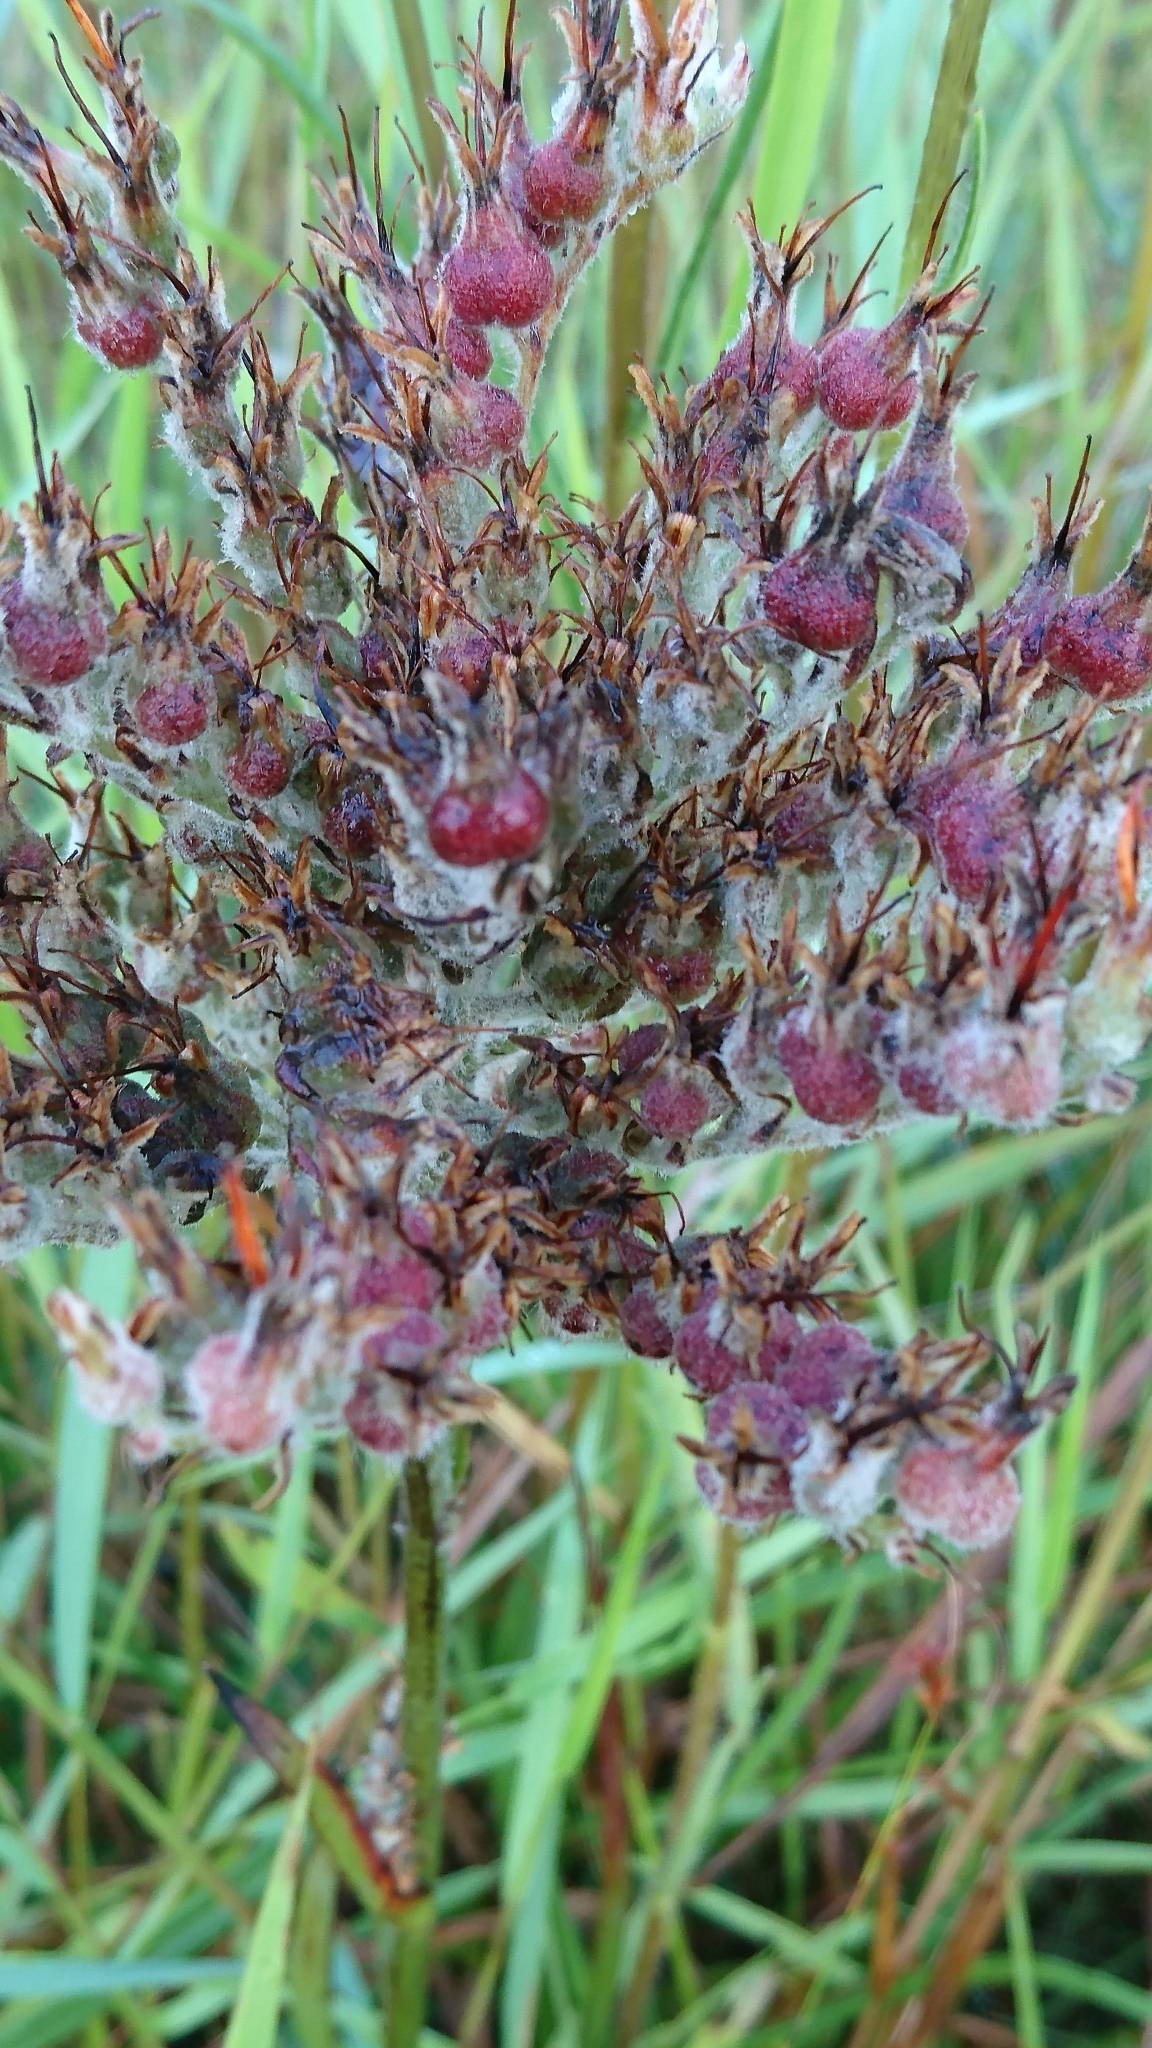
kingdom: Plantae
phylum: Tracheophyta
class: Liliopsida
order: Commelinales
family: Haemodoraceae
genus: Lachnanthes
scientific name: Lachnanthes caroliana
